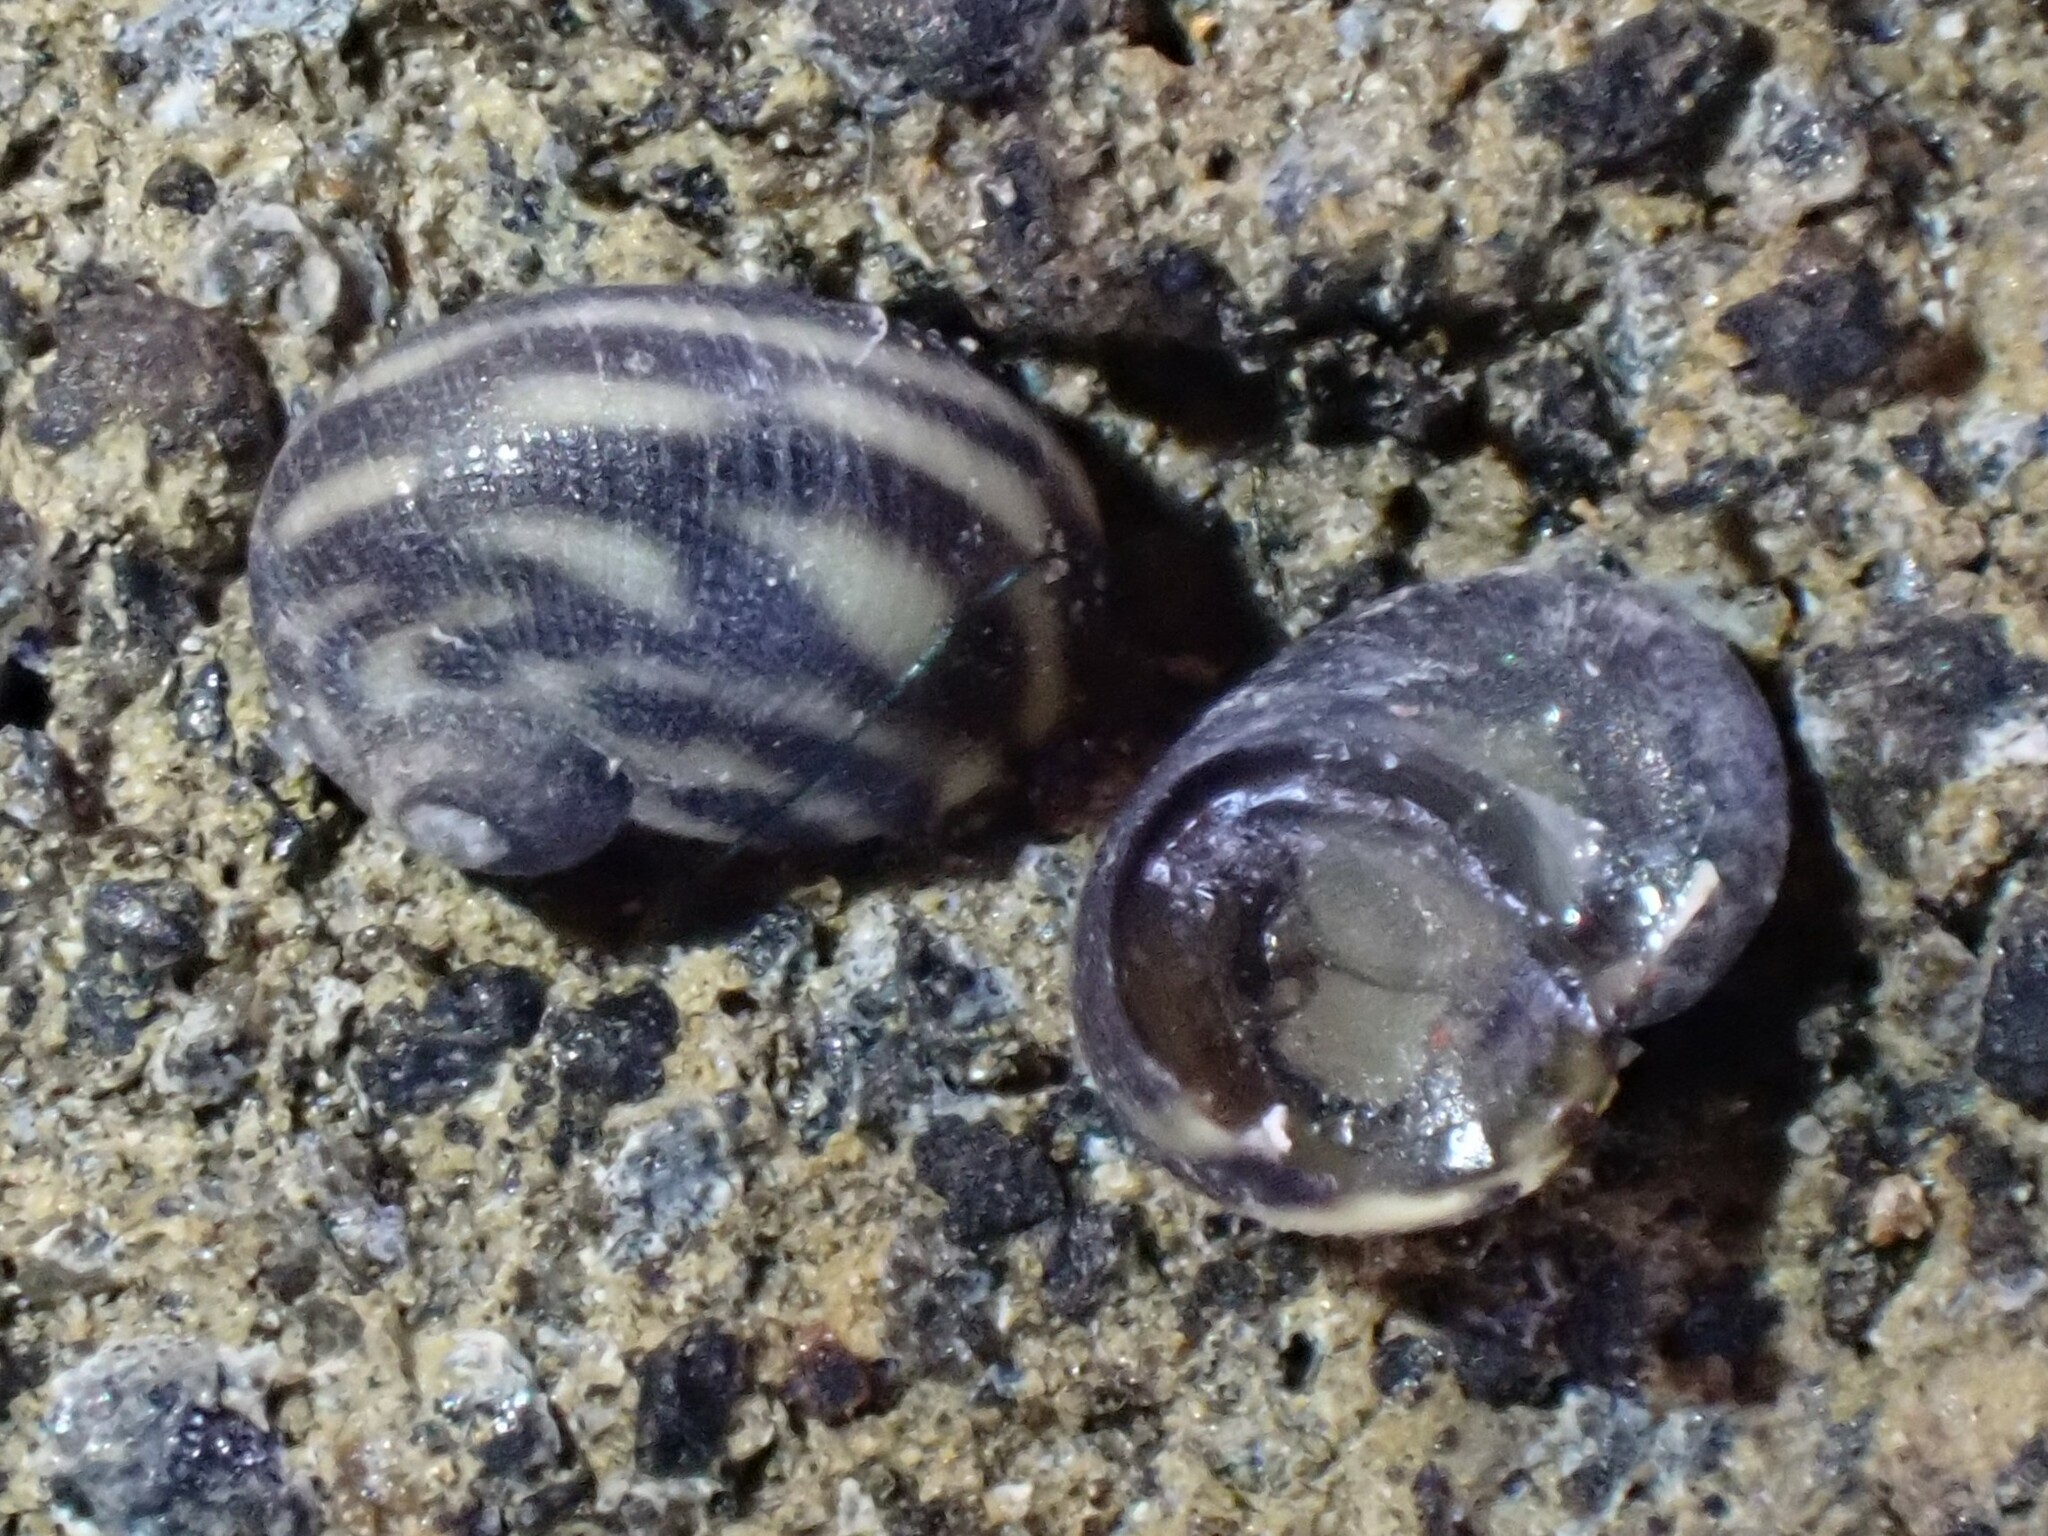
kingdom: Animalia
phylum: Mollusca
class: Gastropoda
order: Trochida
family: Trochidae
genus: Fossarina
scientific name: Fossarina rimata
